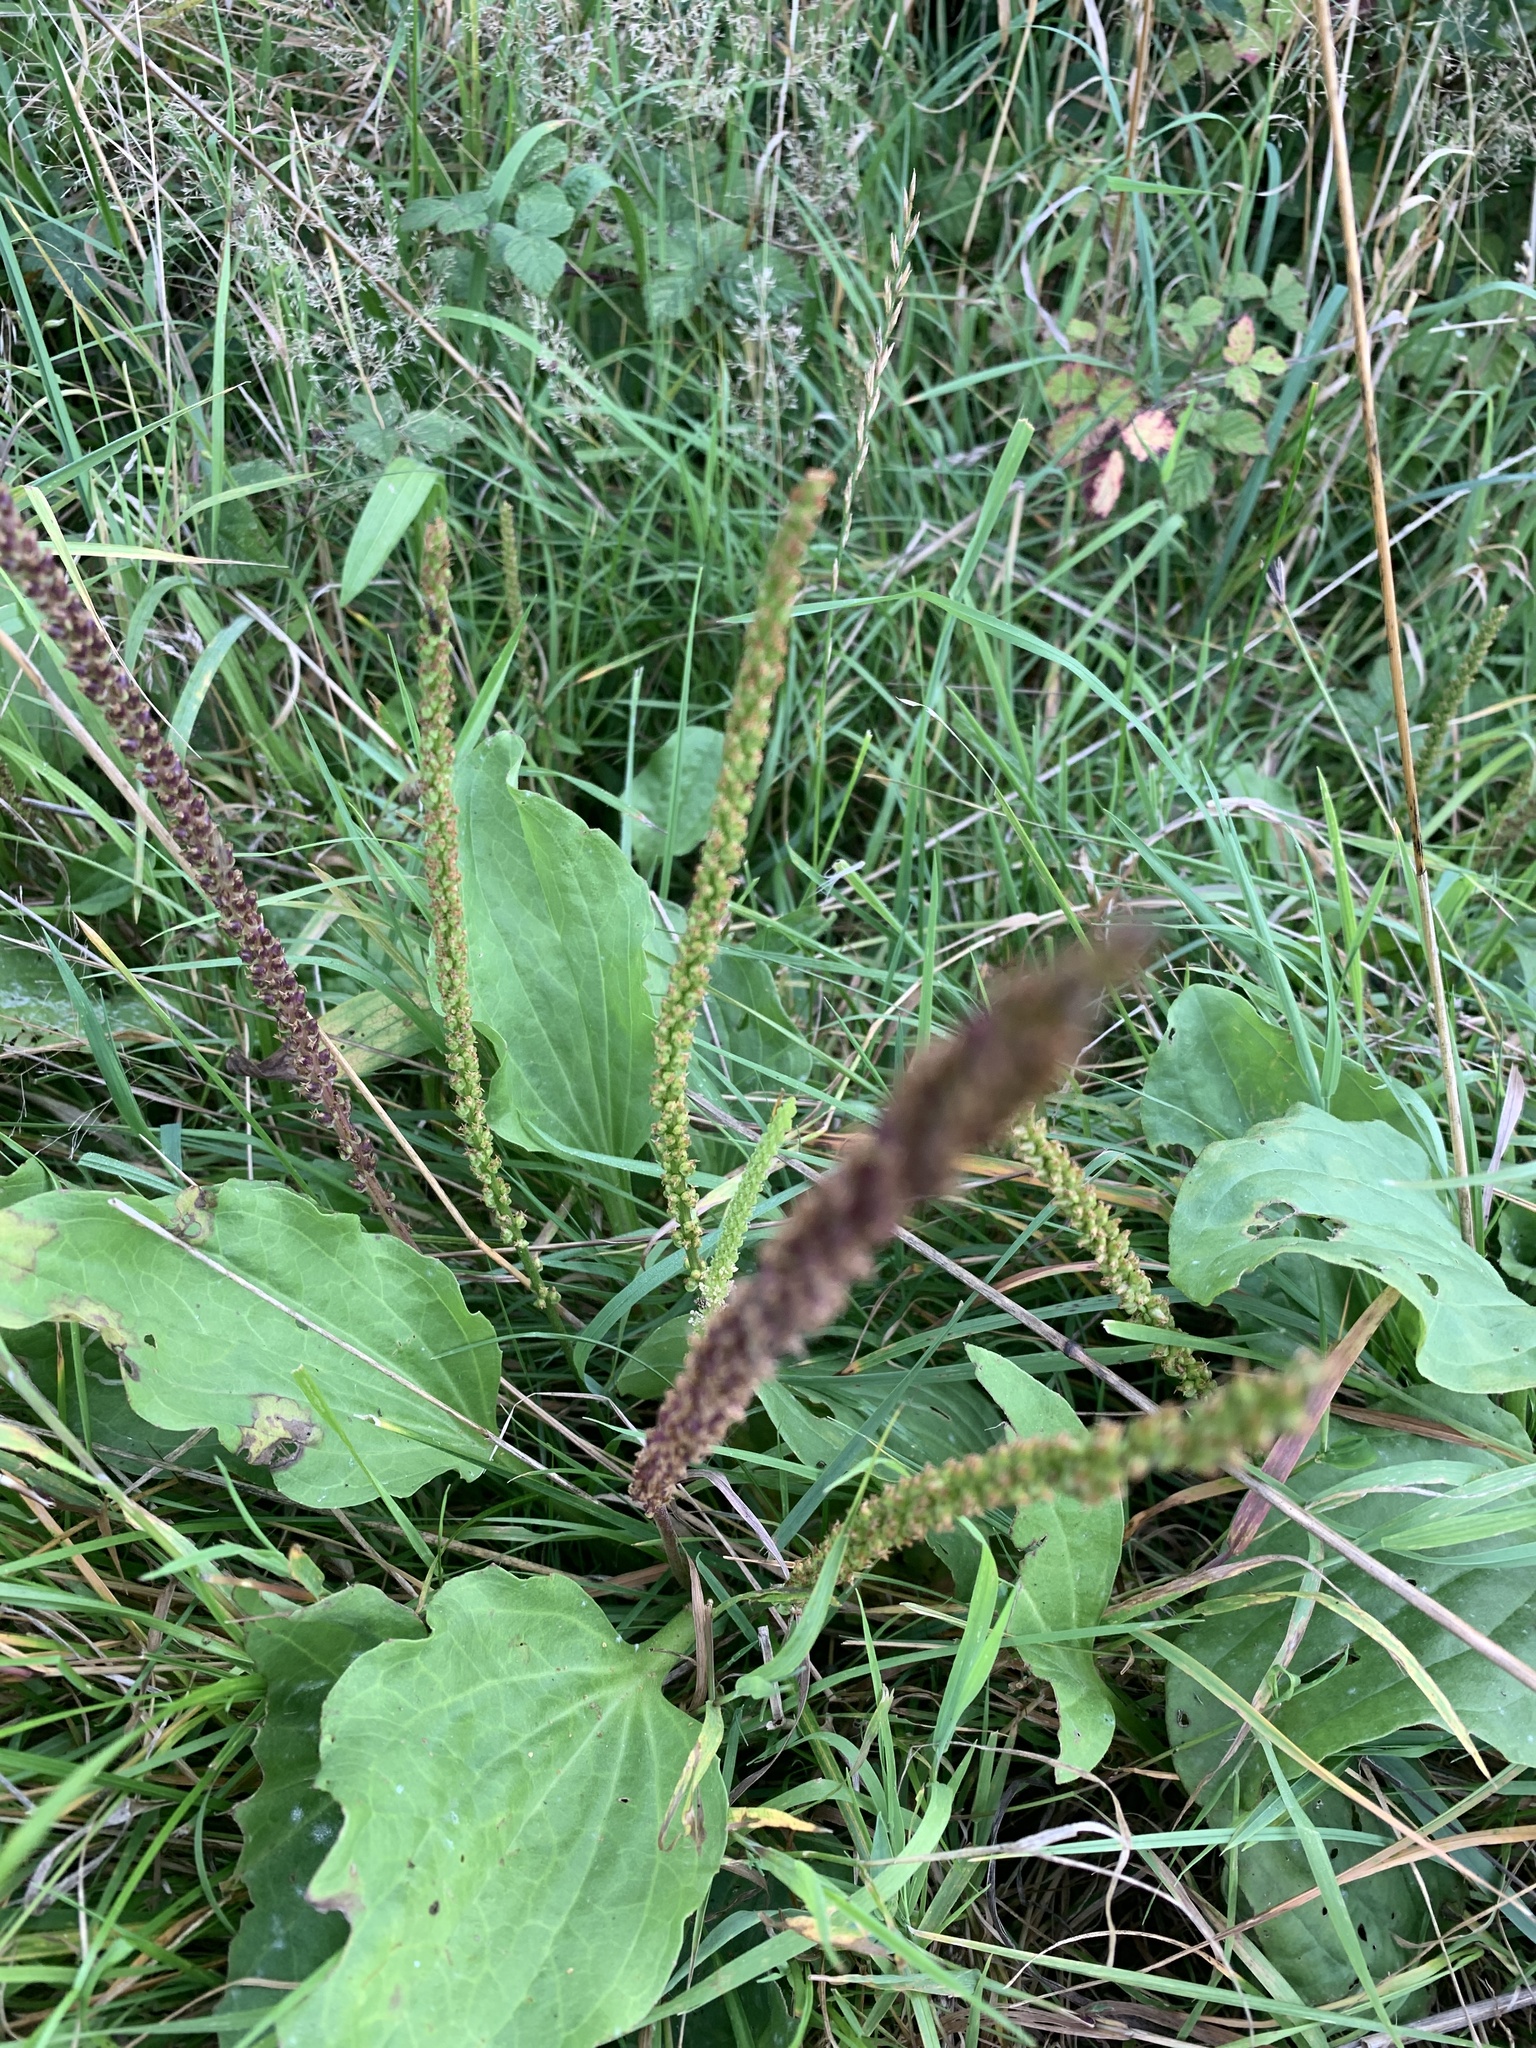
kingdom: Plantae
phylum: Tracheophyta
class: Magnoliopsida
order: Lamiales
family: Plantaginaceae
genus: Plantago
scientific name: Plantago major
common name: Common plantain
